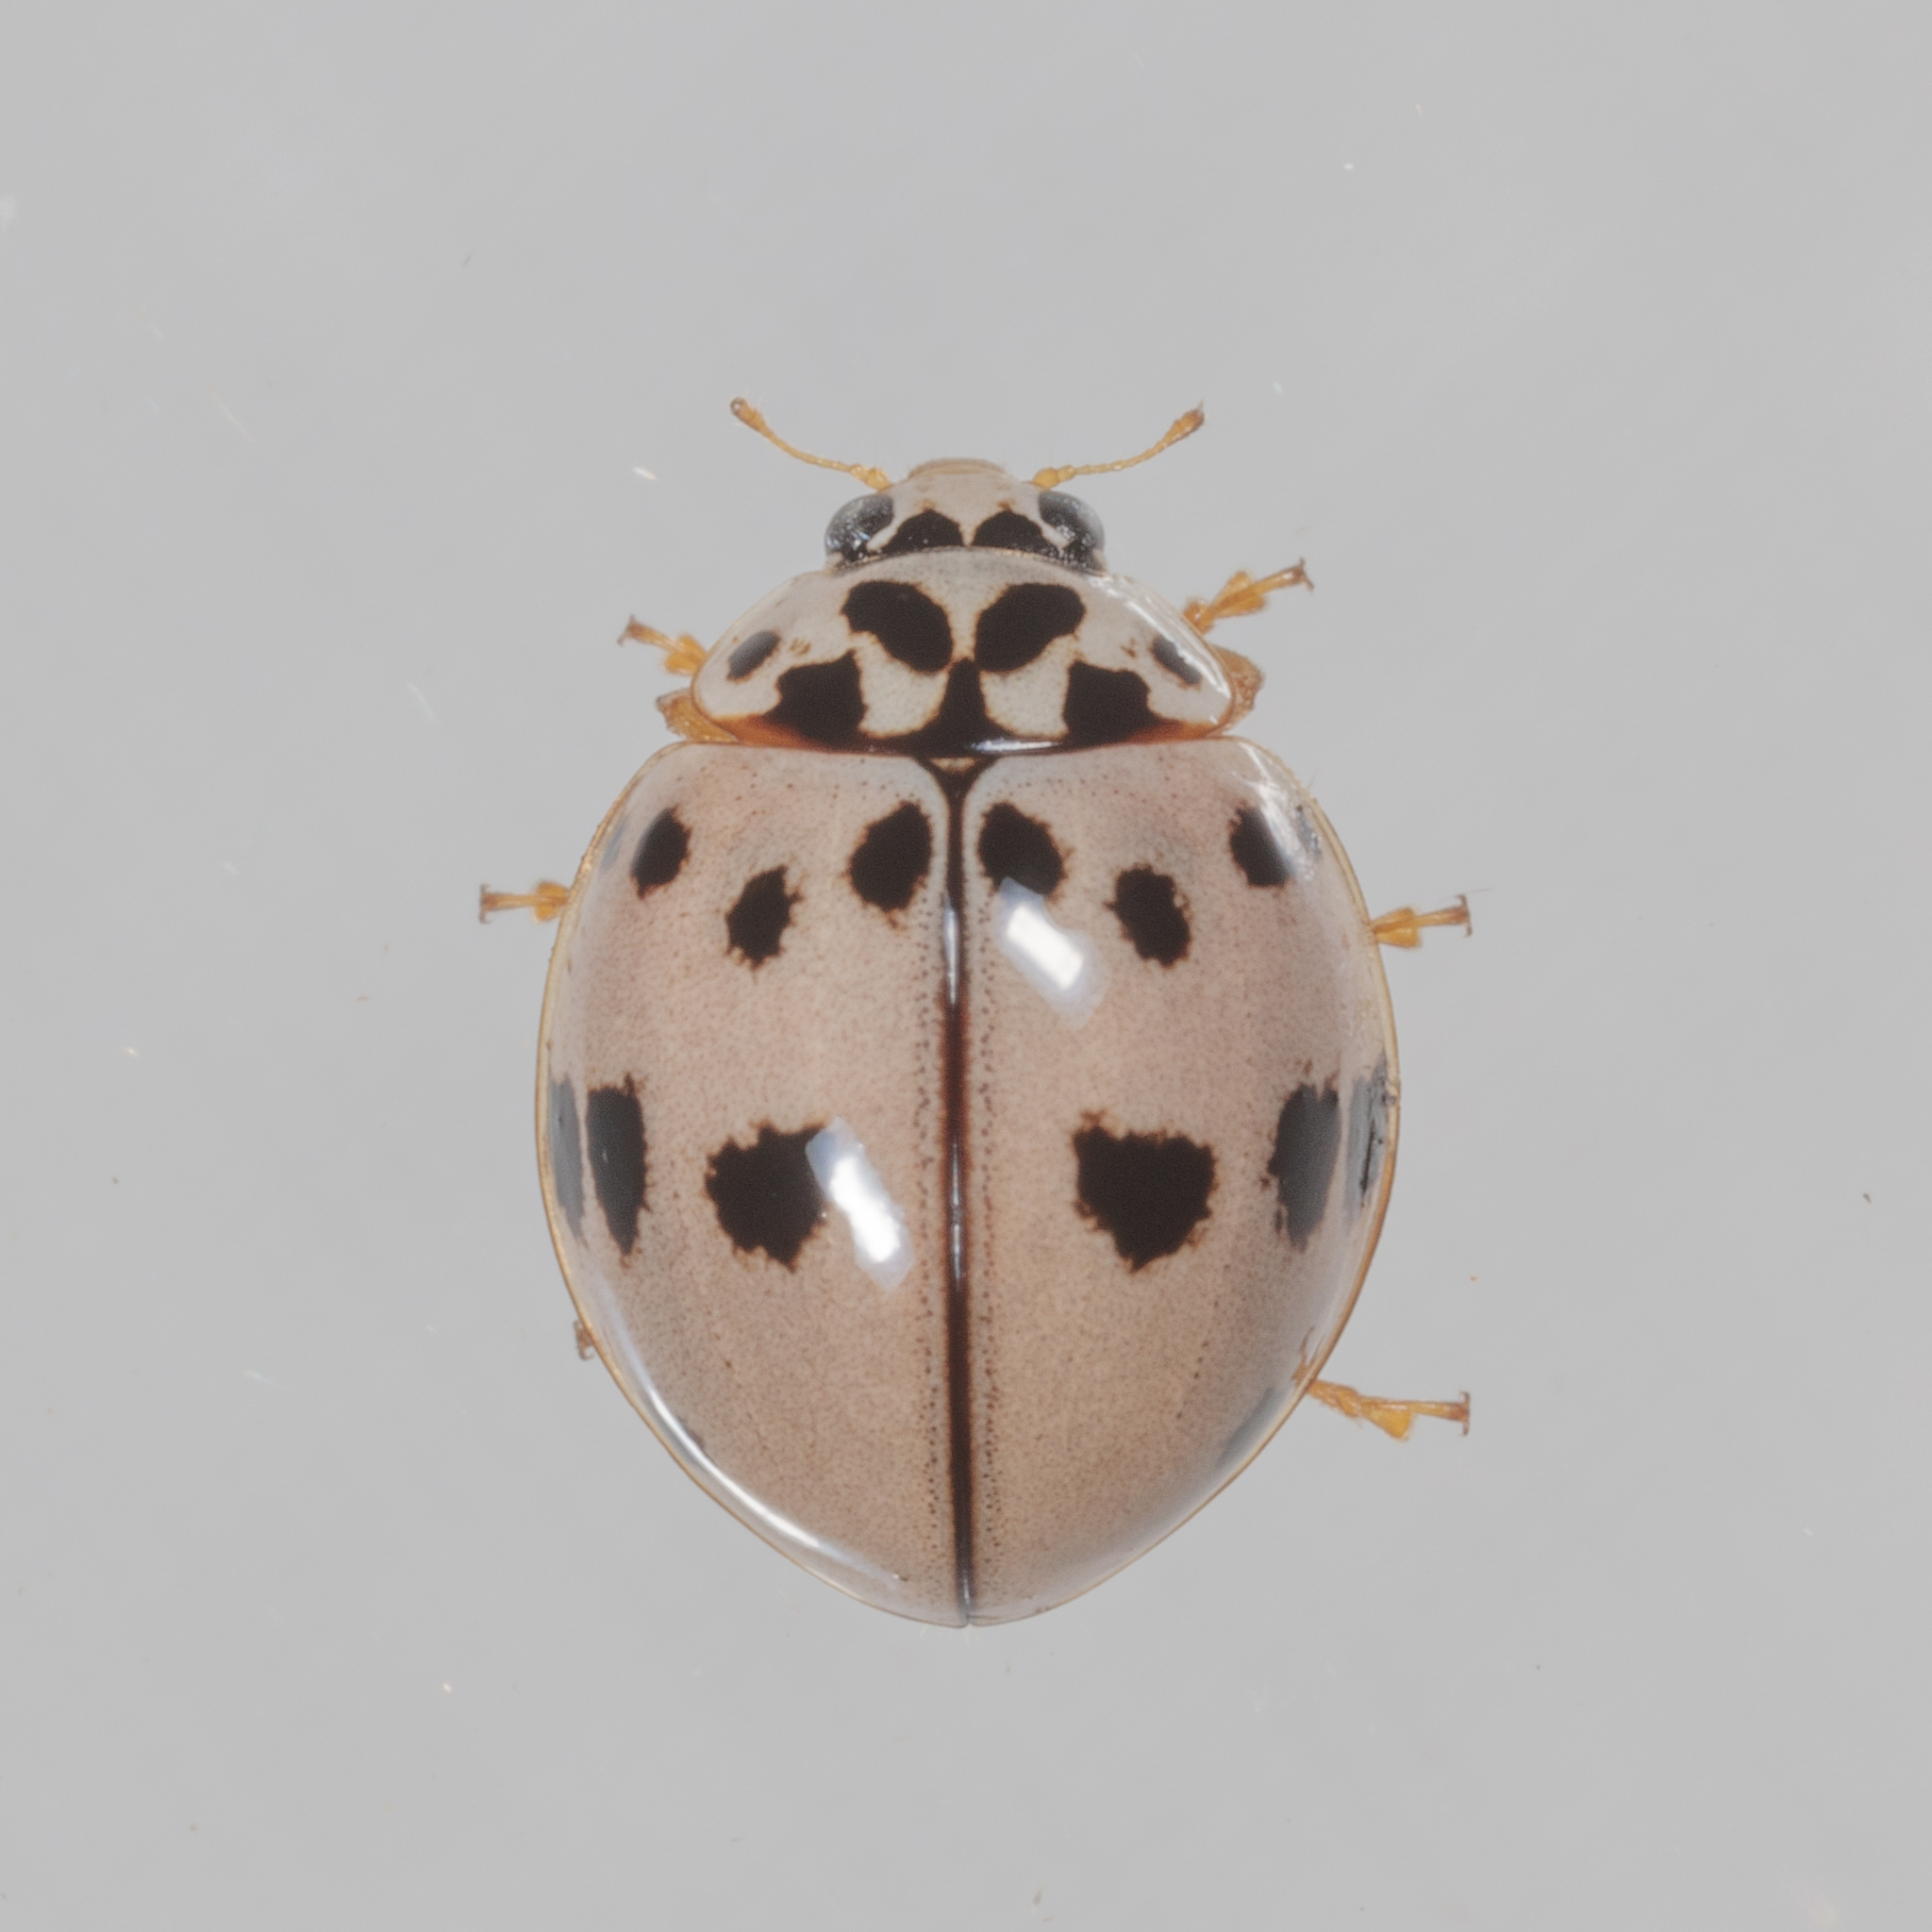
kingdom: Animalia
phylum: Arthropoda
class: Insecta
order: Coleoptera
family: Coccinellidae
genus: Olla
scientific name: Olla v-nigrum
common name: Ashy gray lady beetle
